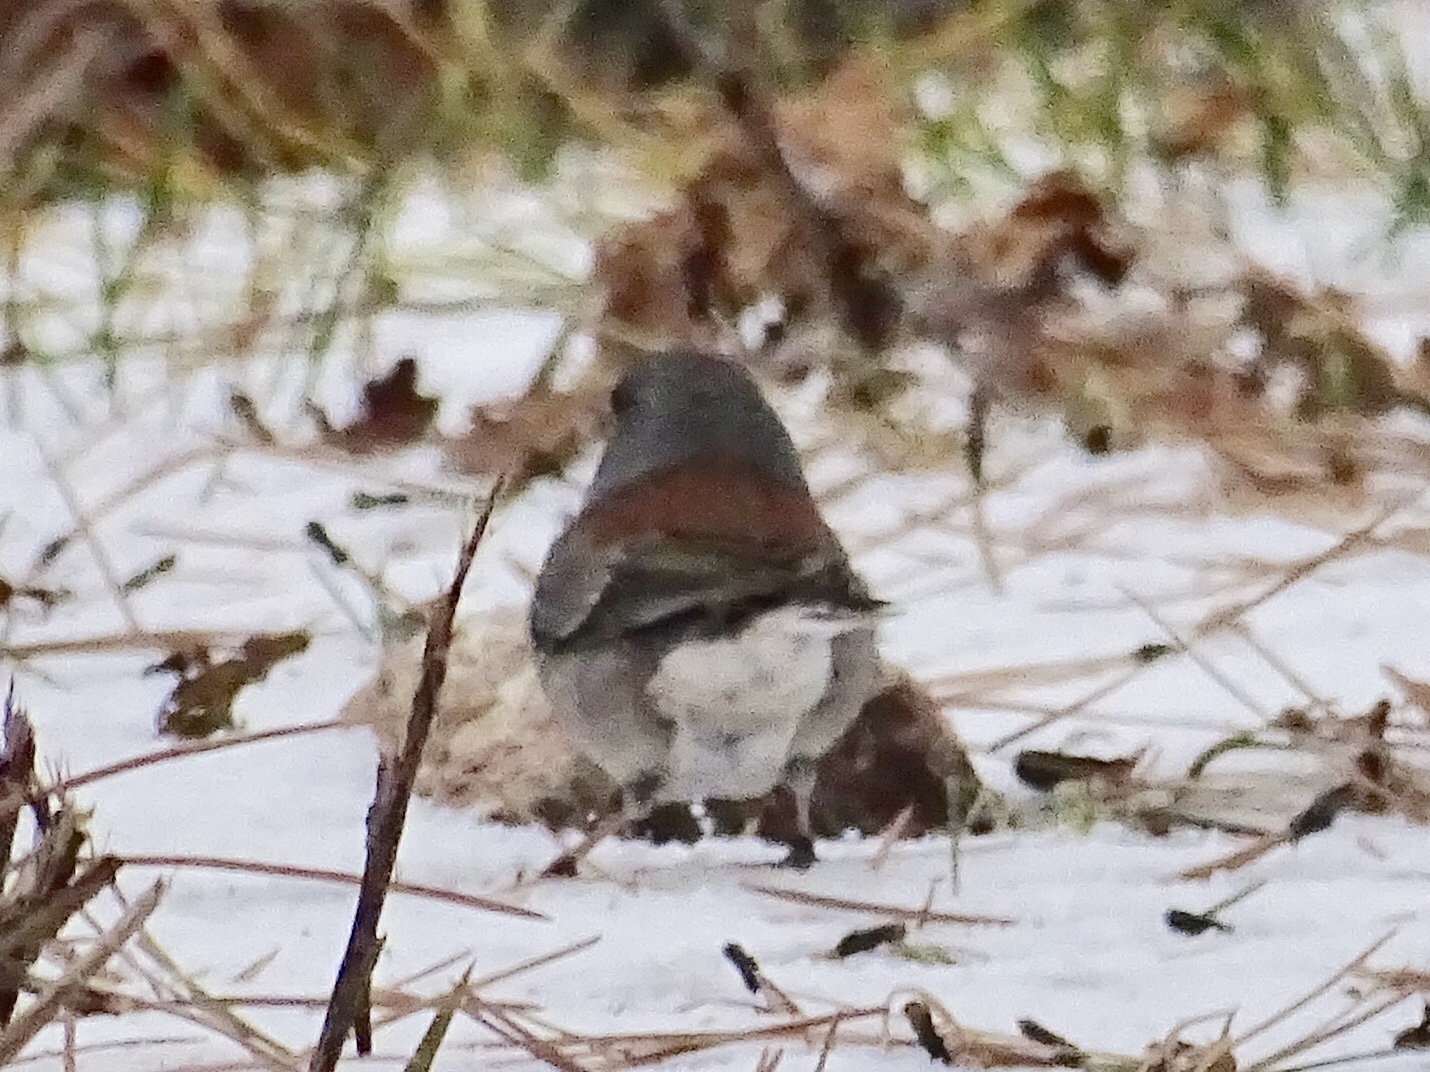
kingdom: Animalia
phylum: Chordata
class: Aves
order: Passeriformes
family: Passerellidae
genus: Junco
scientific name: Junco hyemalis
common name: Dark-eyed junco
